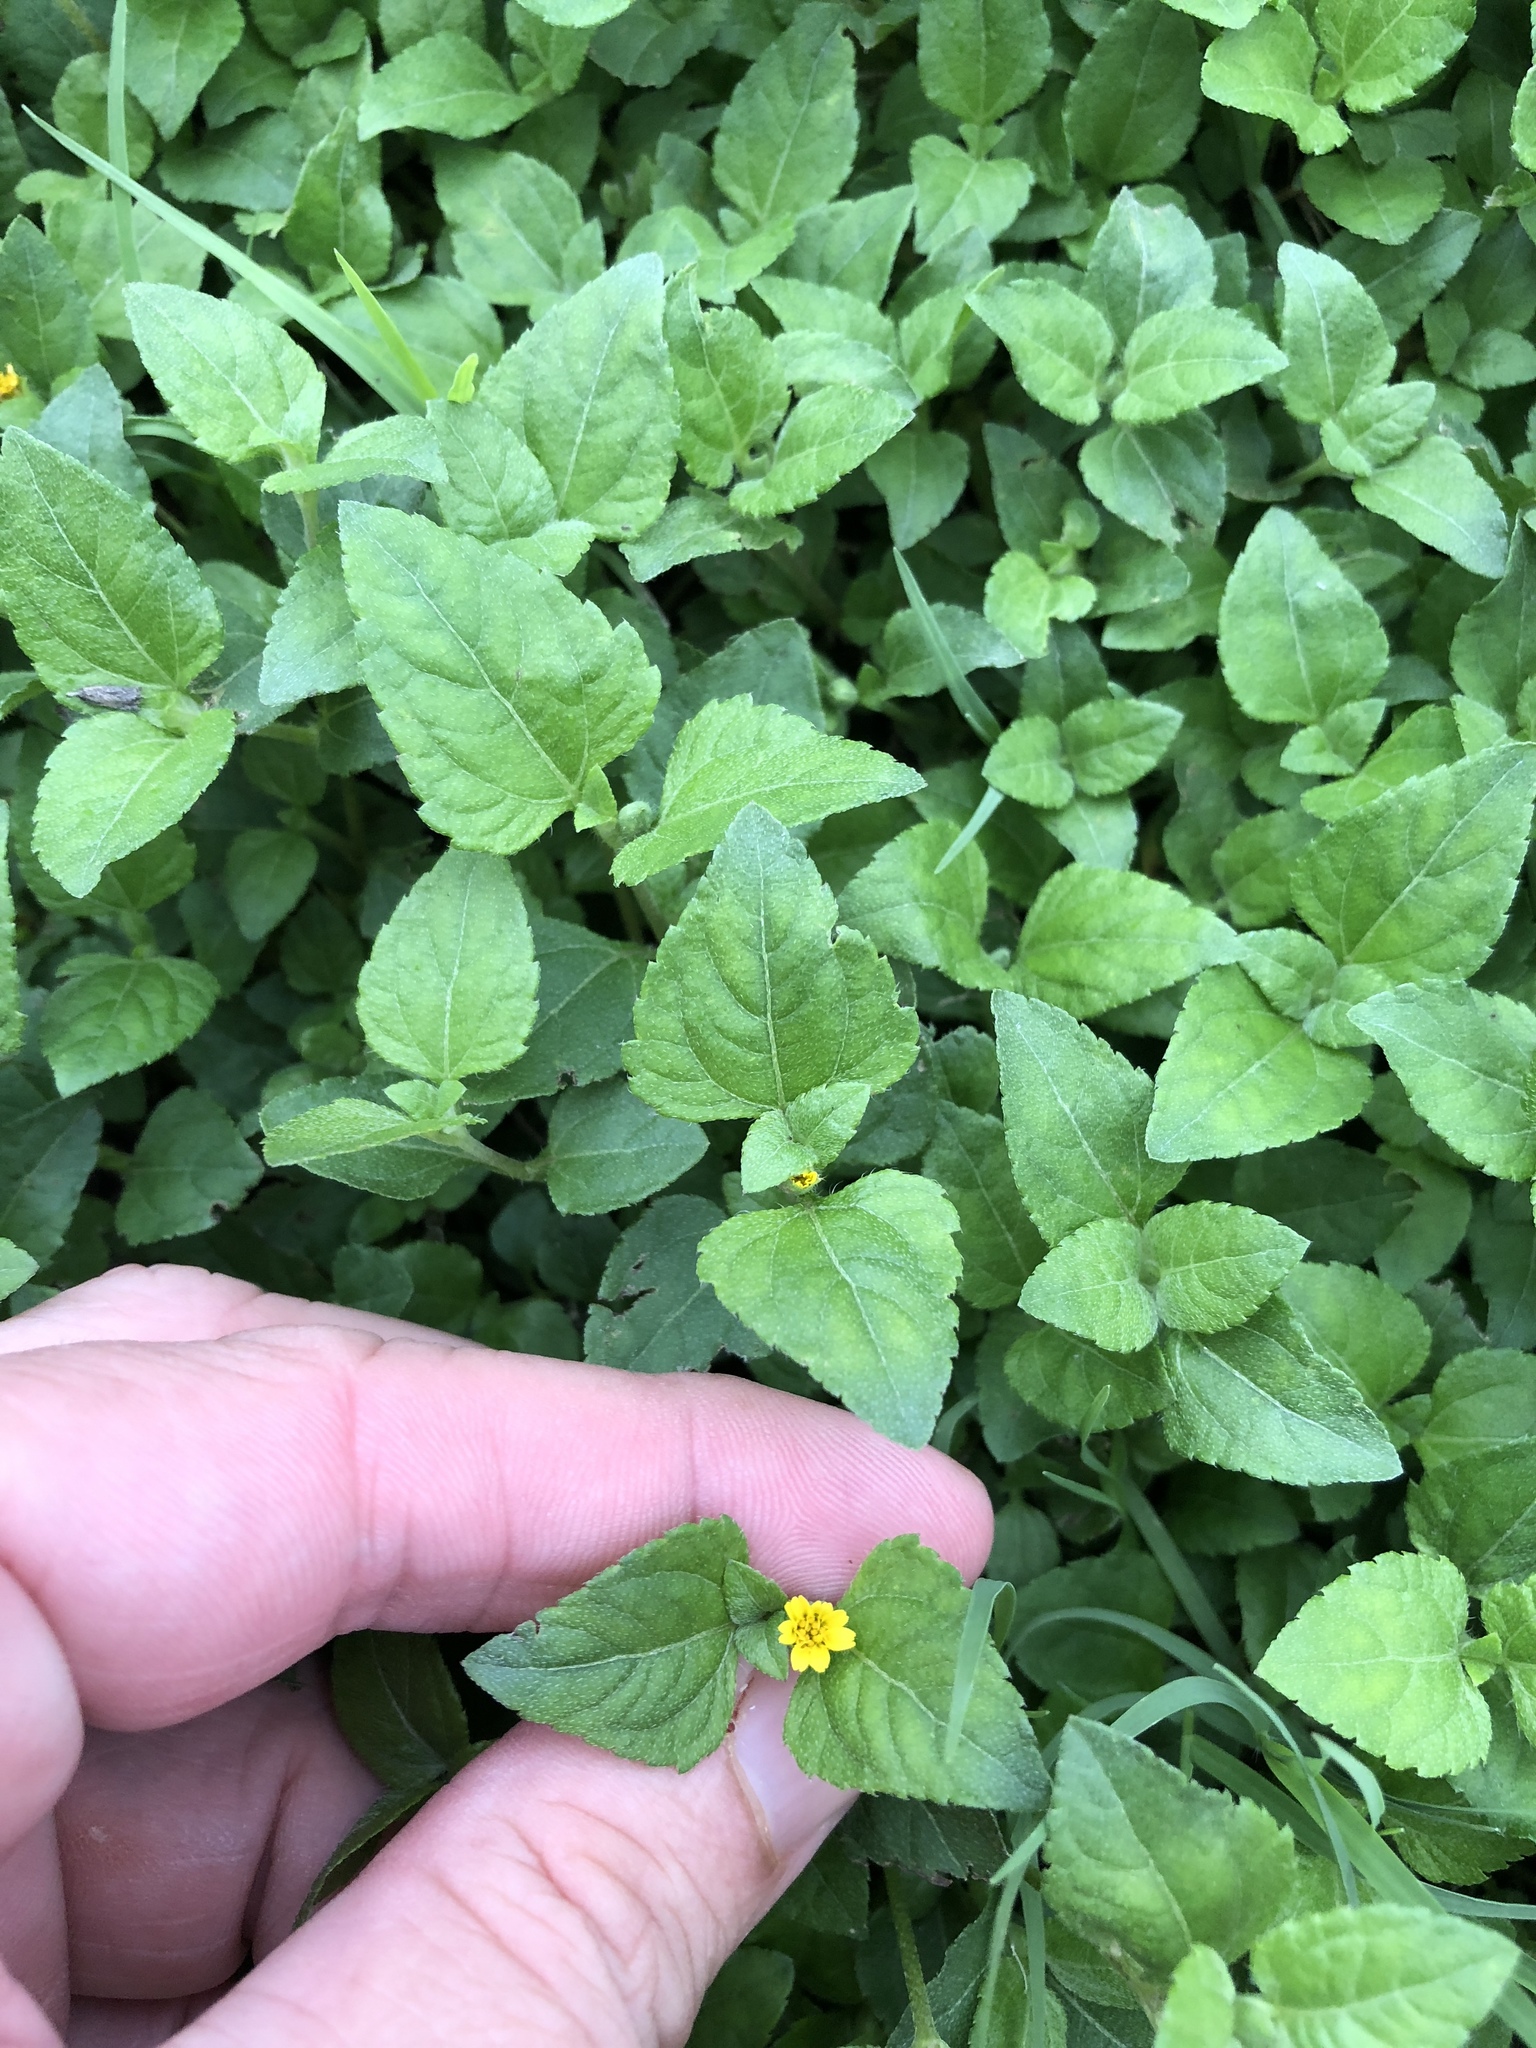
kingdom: Plantae
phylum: Tracheophyta
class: Magnoliopsida
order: Asterales
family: Asteraceae
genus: Calyptocarpus
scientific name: Calyptocarpus vialis
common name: Straggler daisy
